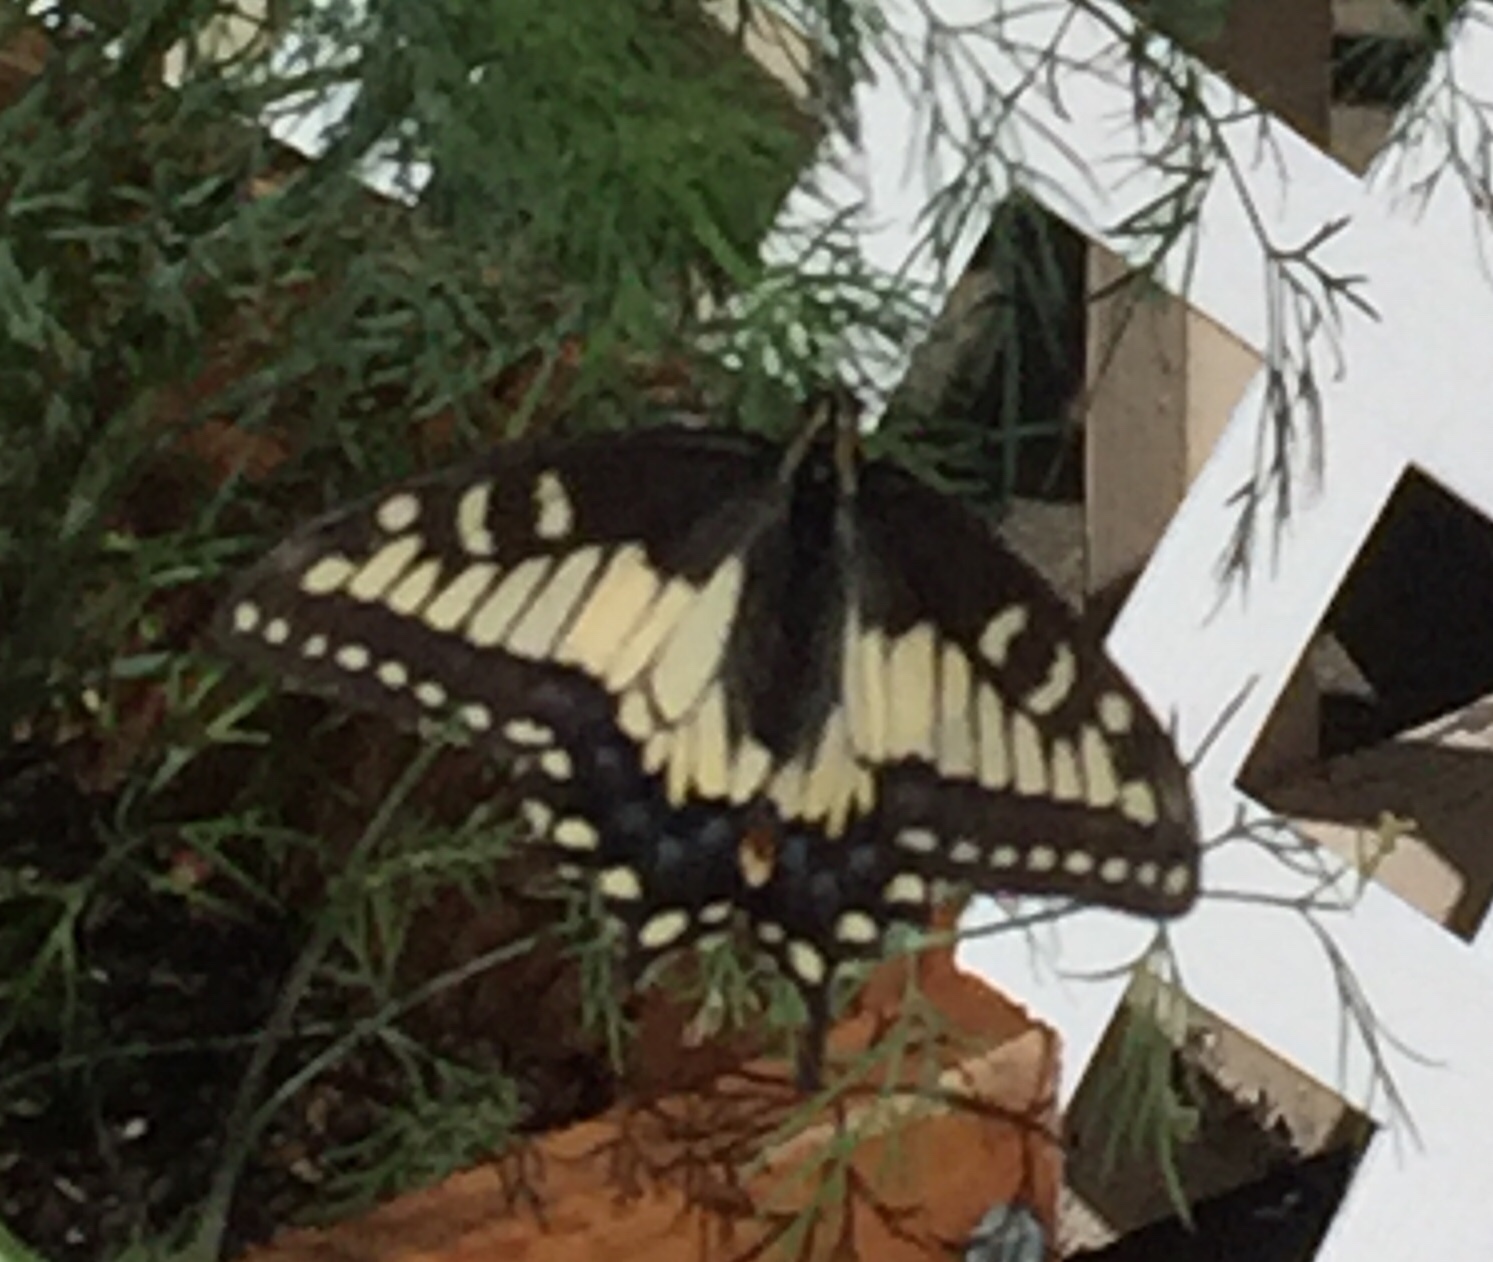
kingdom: Animalia
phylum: Arthropoda
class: Insecta
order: Lepidoptera
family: Papilionidae
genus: Papilio
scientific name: Papilio zelicaon
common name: Anise swallowtail
